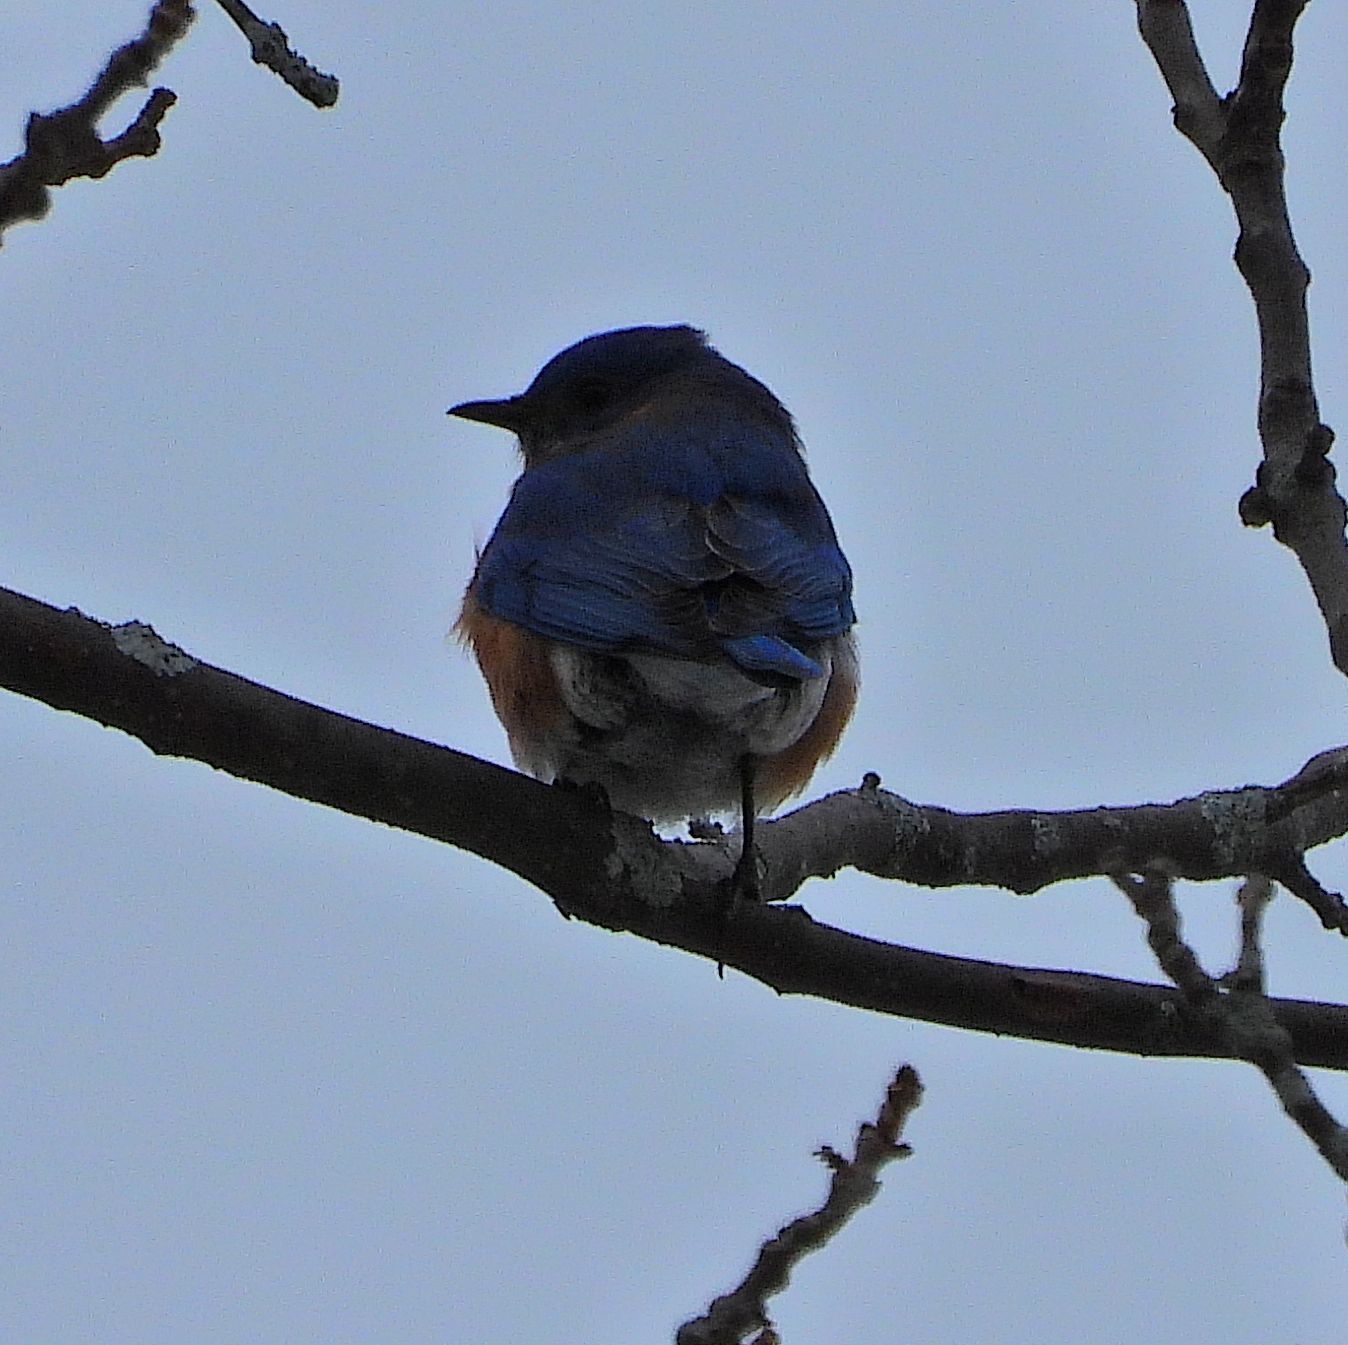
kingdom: Animalia
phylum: Chordata
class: Aves
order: Passeriformes
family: Turdidae
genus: Sialia
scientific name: Sialia sialis
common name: Eastern bluebird
